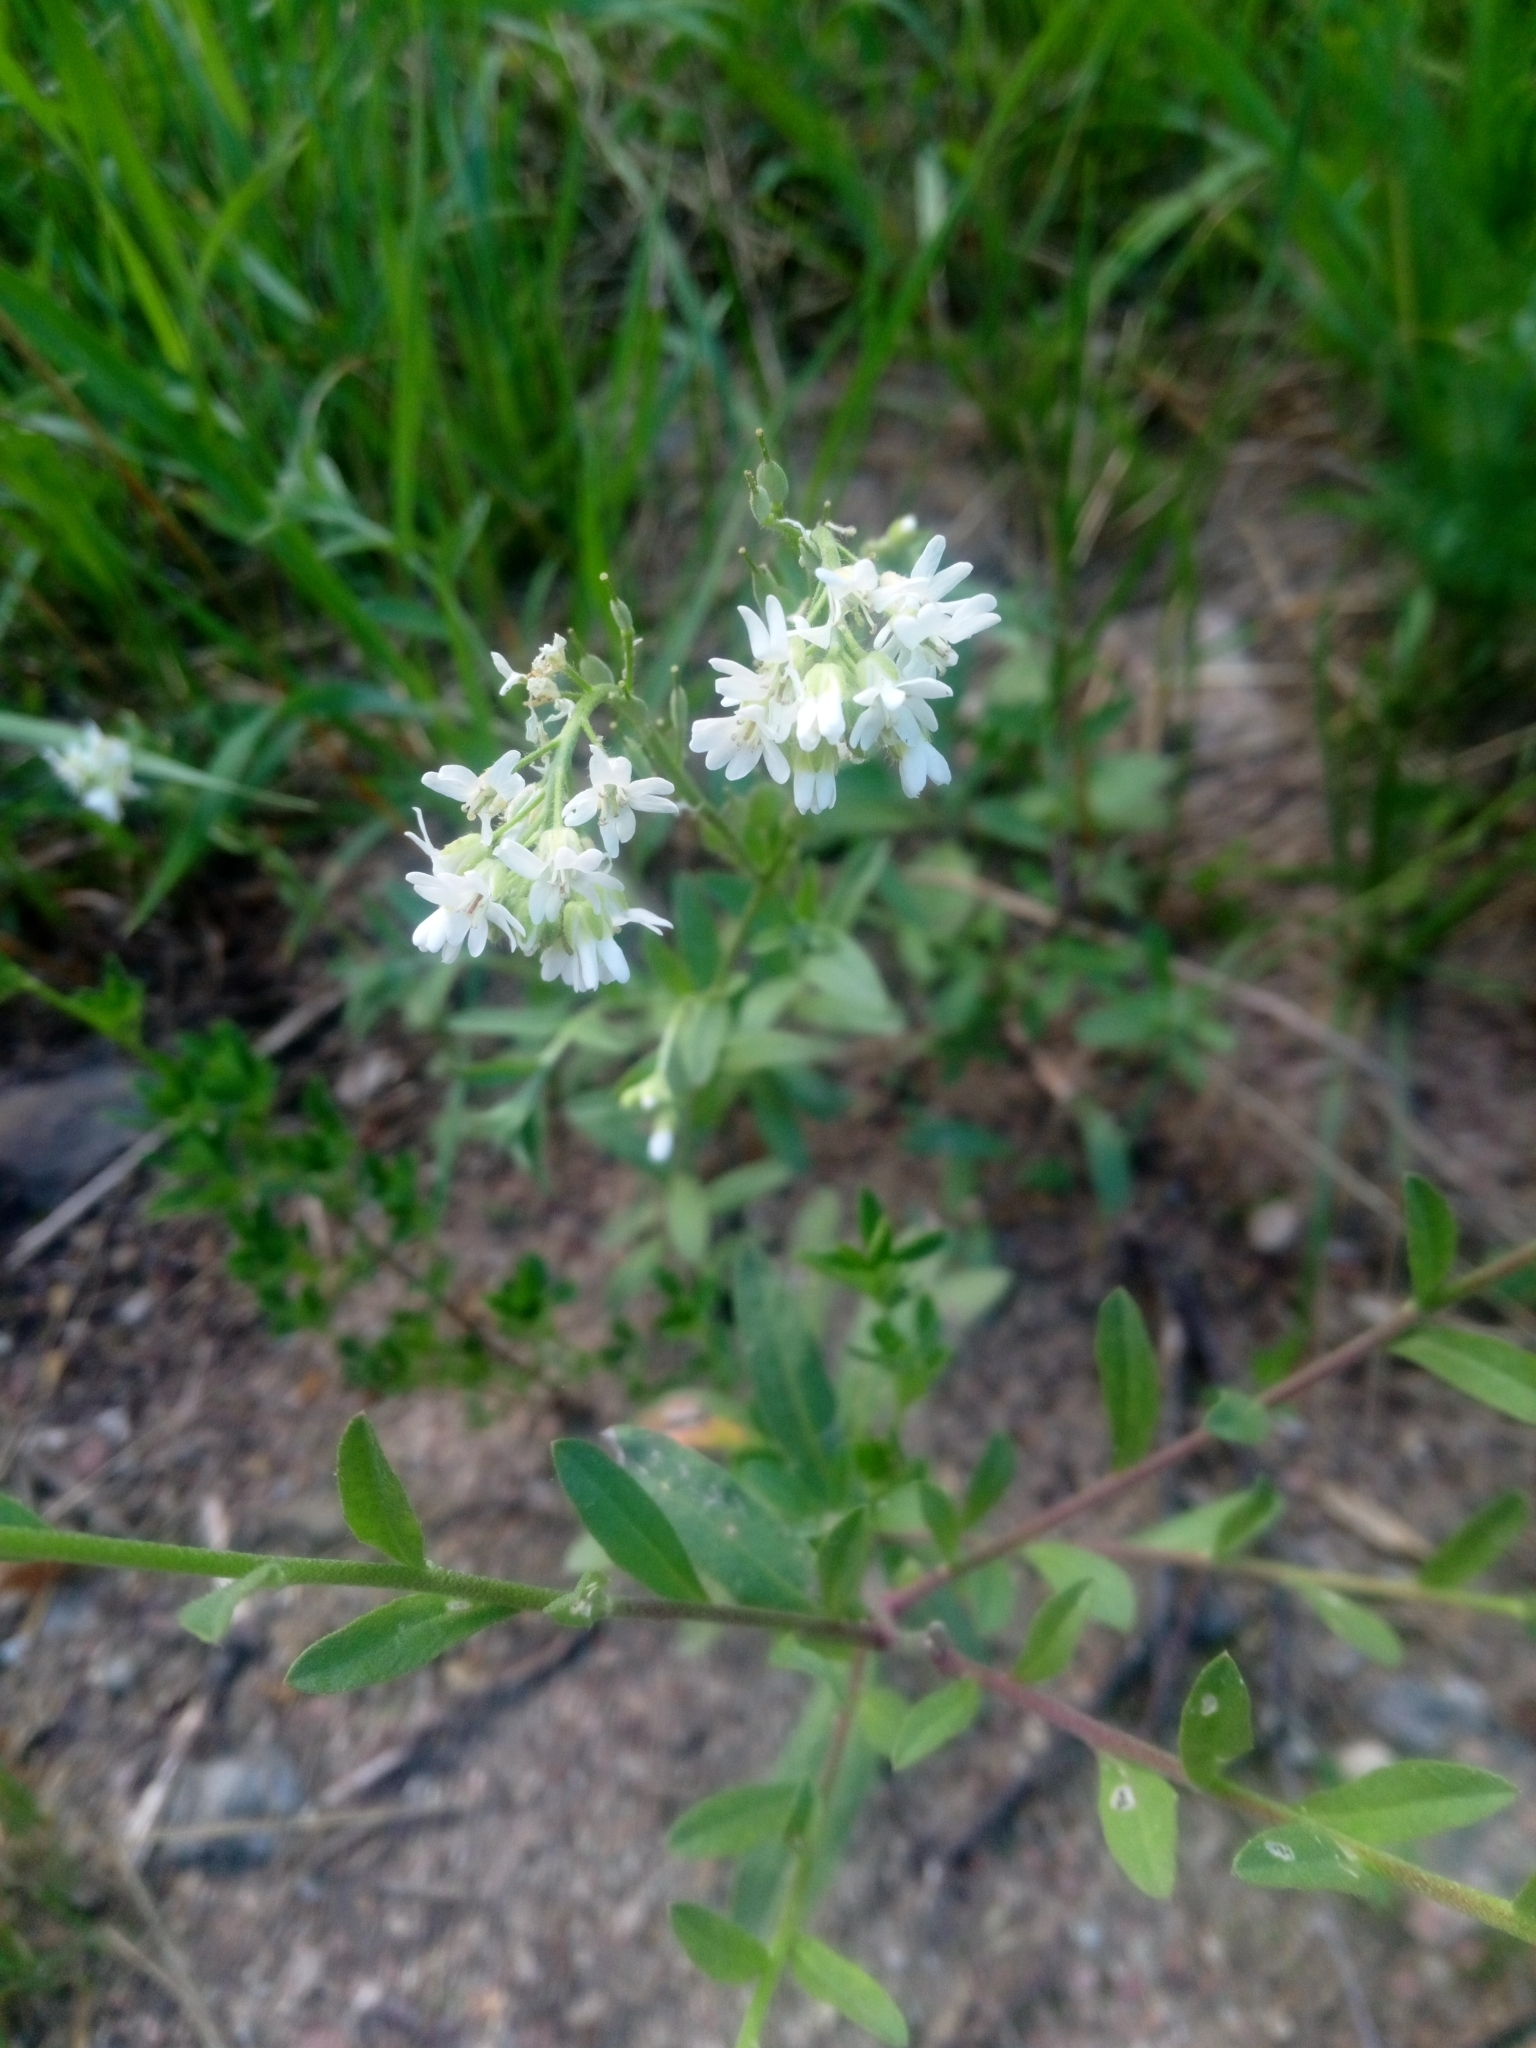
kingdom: Plantae
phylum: Tracheophyta
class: Magnoliopsida
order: Brassicales
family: Brassicaceae
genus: Berteroa
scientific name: Berteroa incana
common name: Hoary alison
